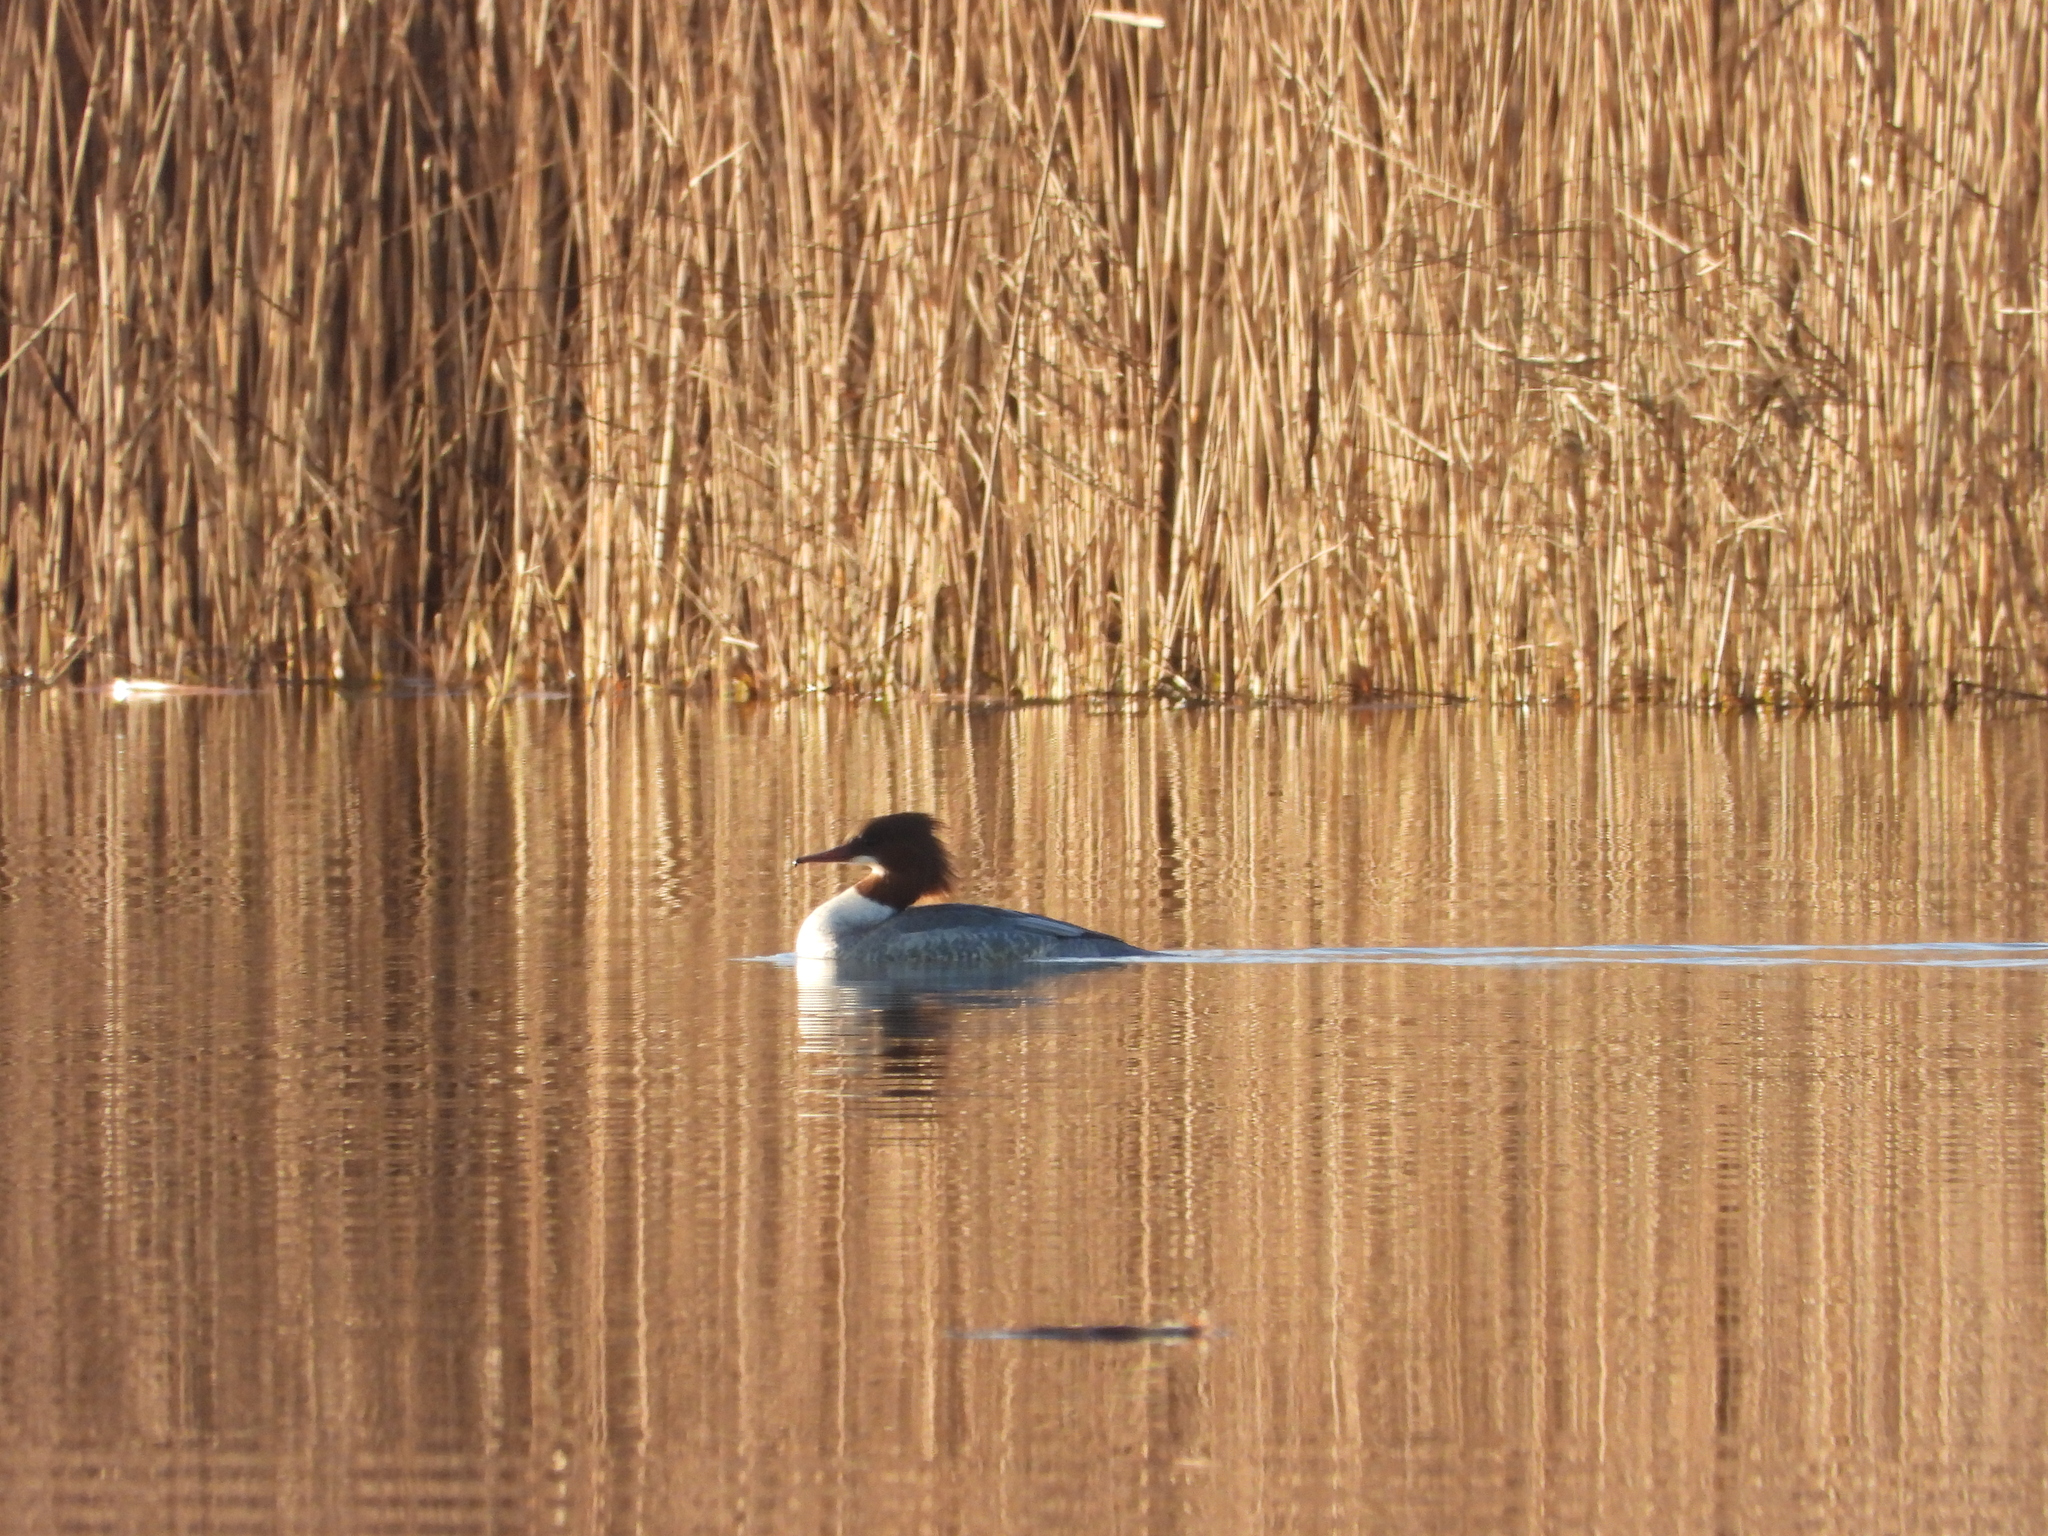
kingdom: Animalia
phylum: Chordata
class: Aves
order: Anseriformes
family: Anatidae
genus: Mergus
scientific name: Mergus merganser
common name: Common merganser
